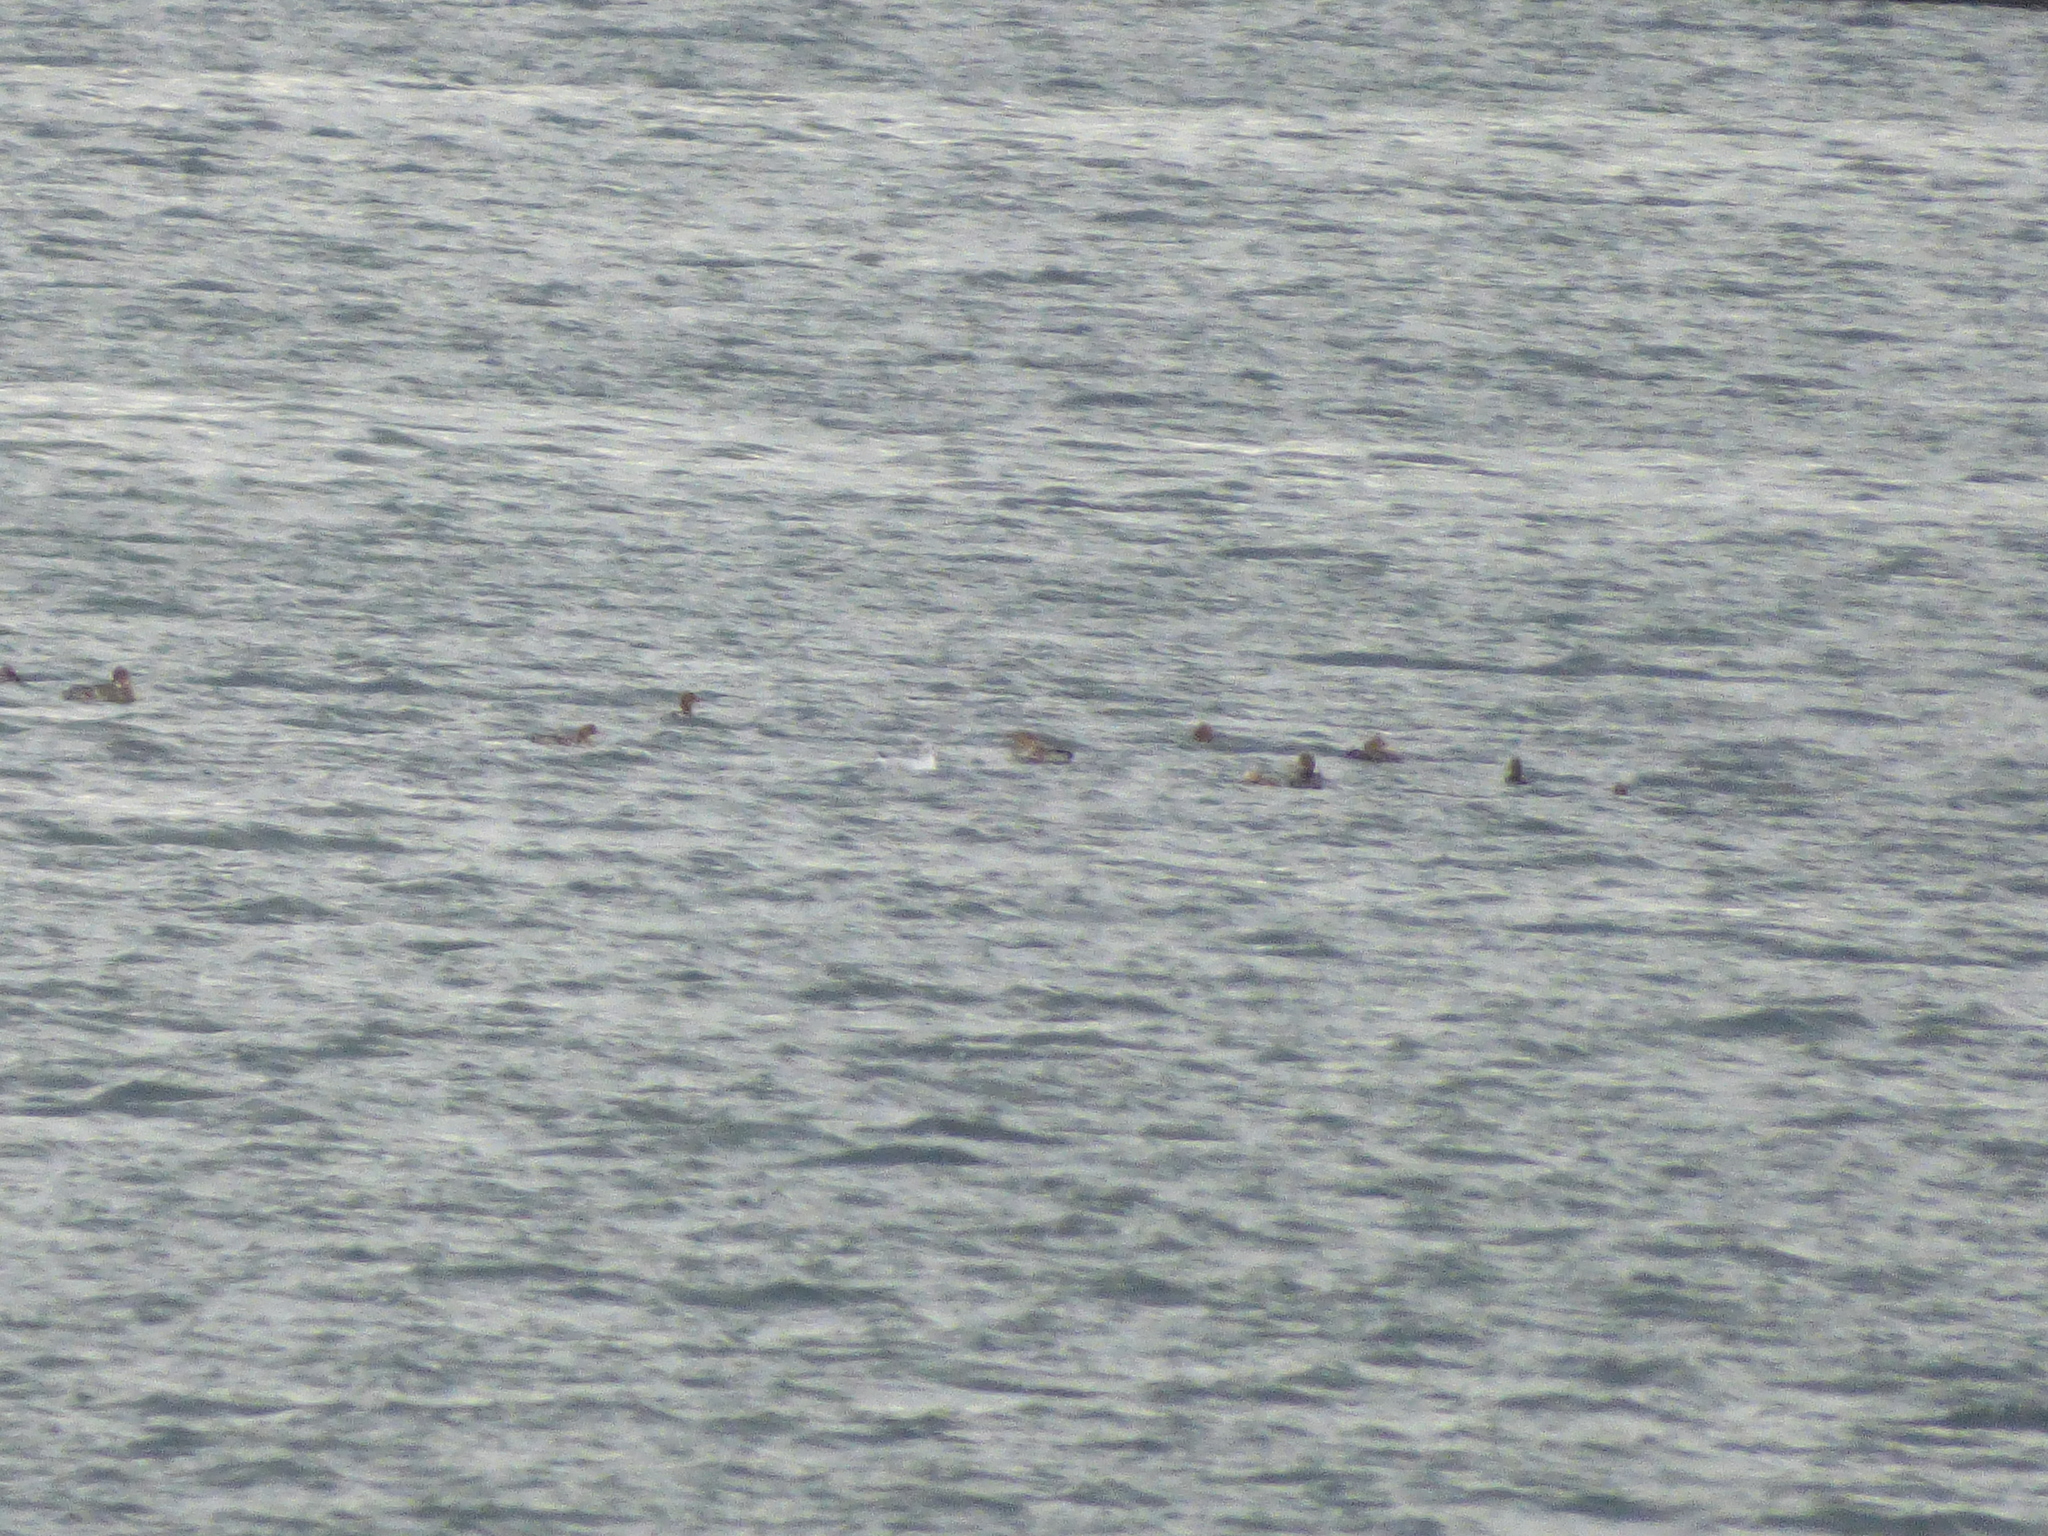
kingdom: Animalia
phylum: Chordata
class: Aves
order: Anseriformes
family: Anatidae
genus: Mergus
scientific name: Mergus serrator
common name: Red-breasted merganser
